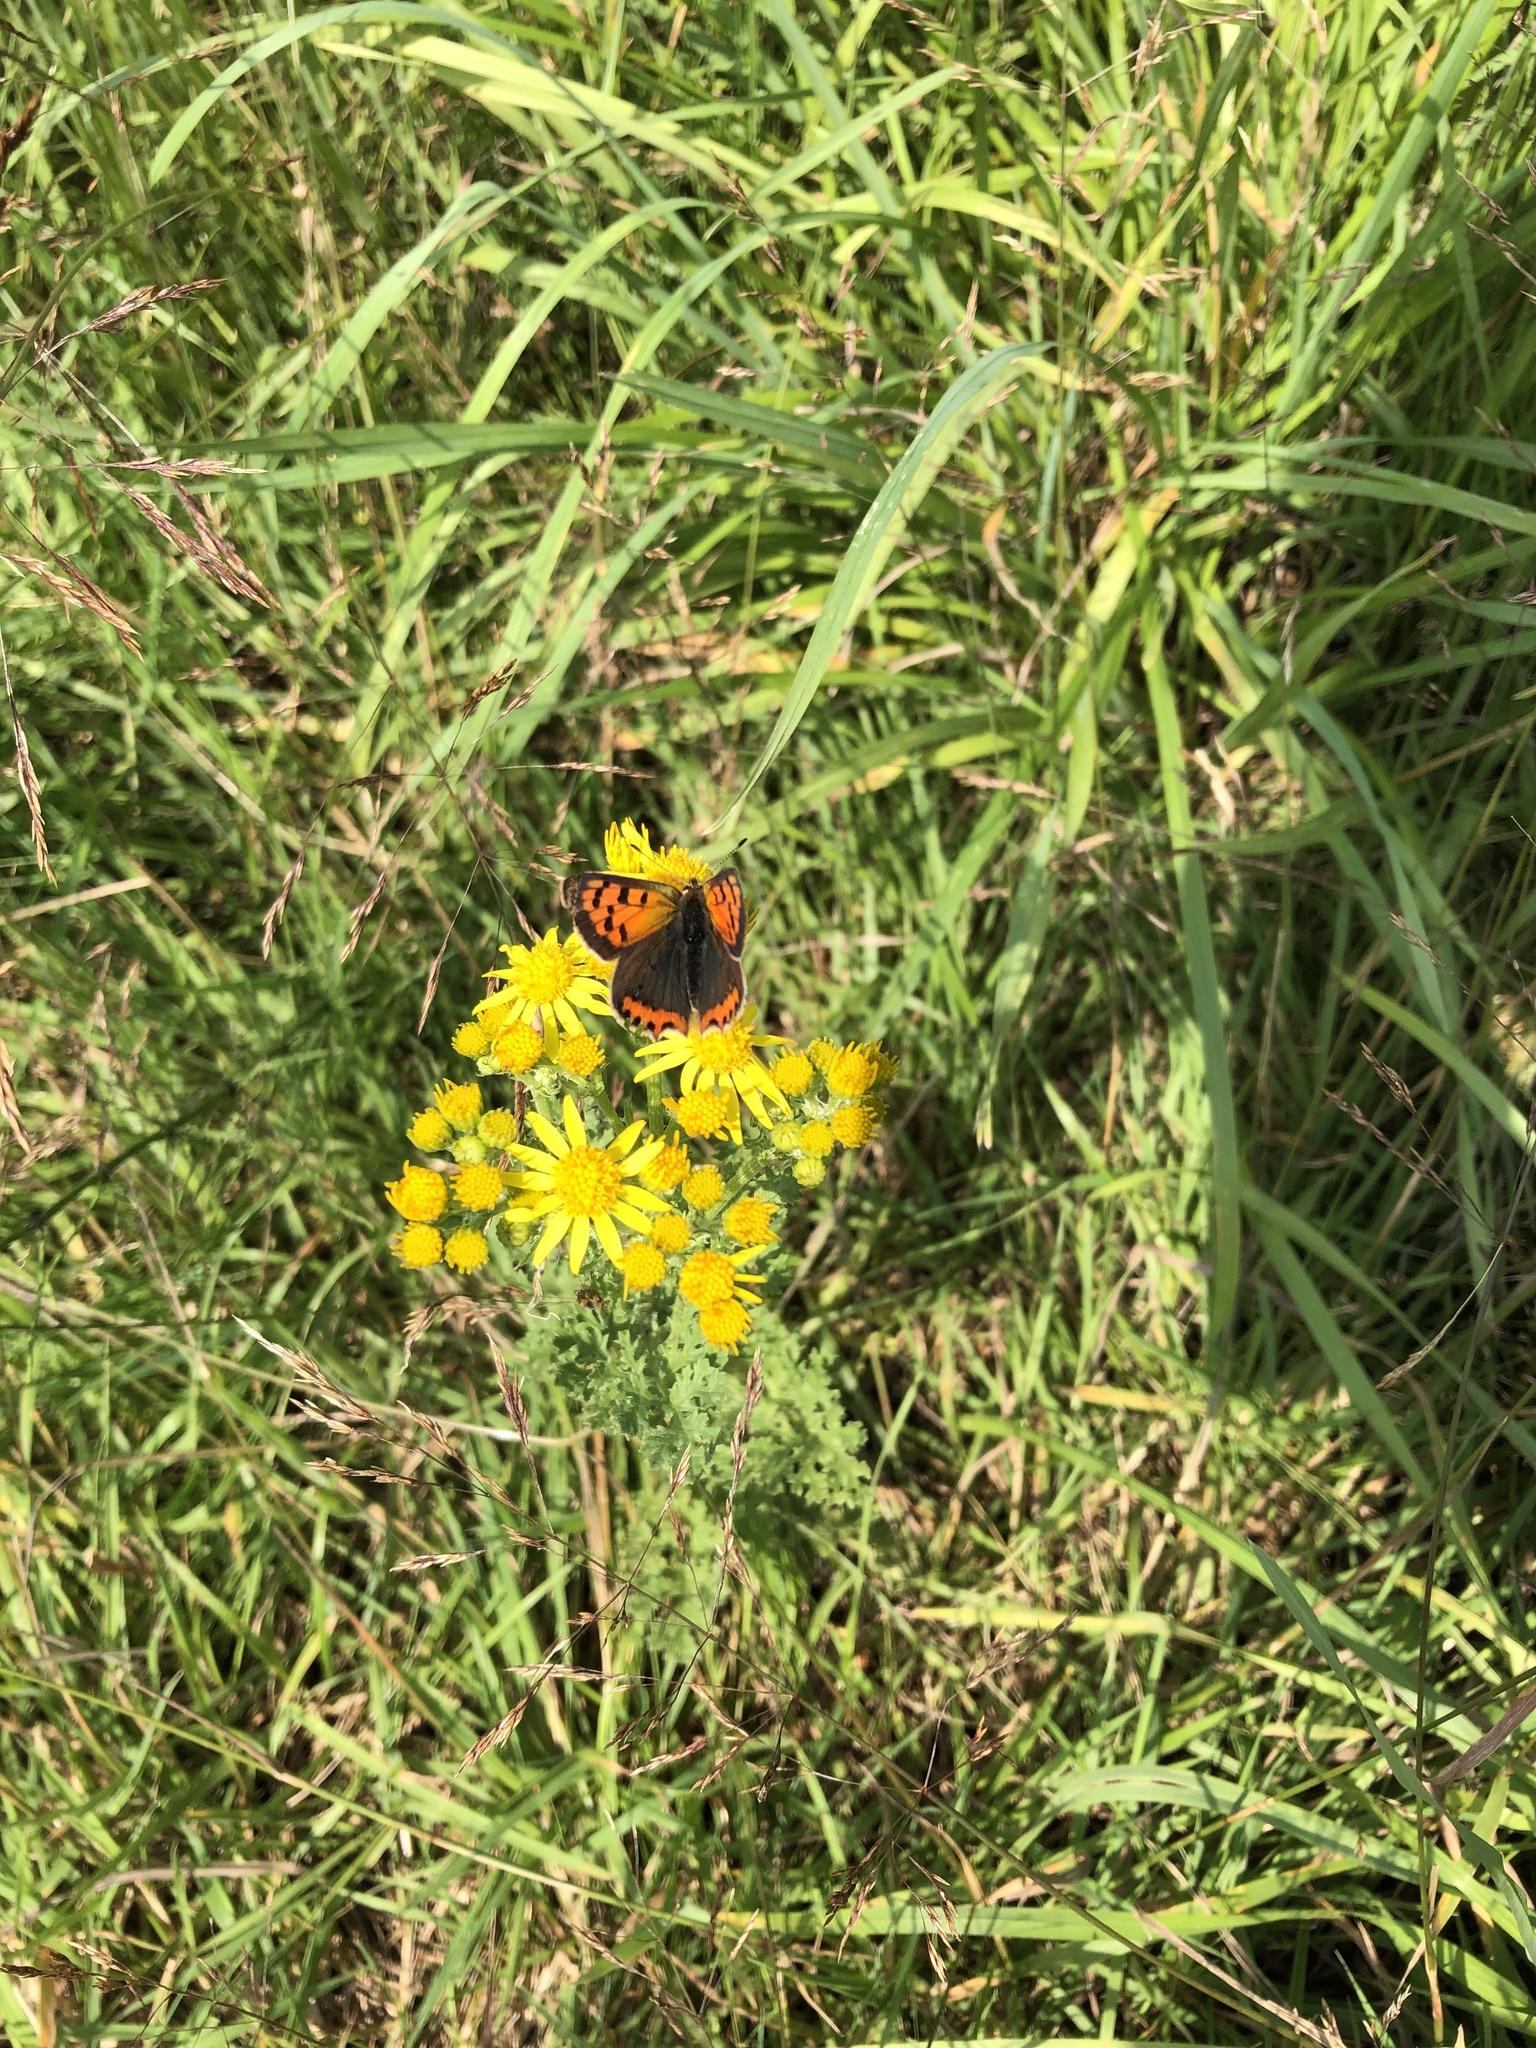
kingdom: Animalia
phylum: Arthropoda
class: Insecta
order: Lepidoptera
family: Lycaenidae
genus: Lycaena
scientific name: Lycaena phlaeas
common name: Small copper
